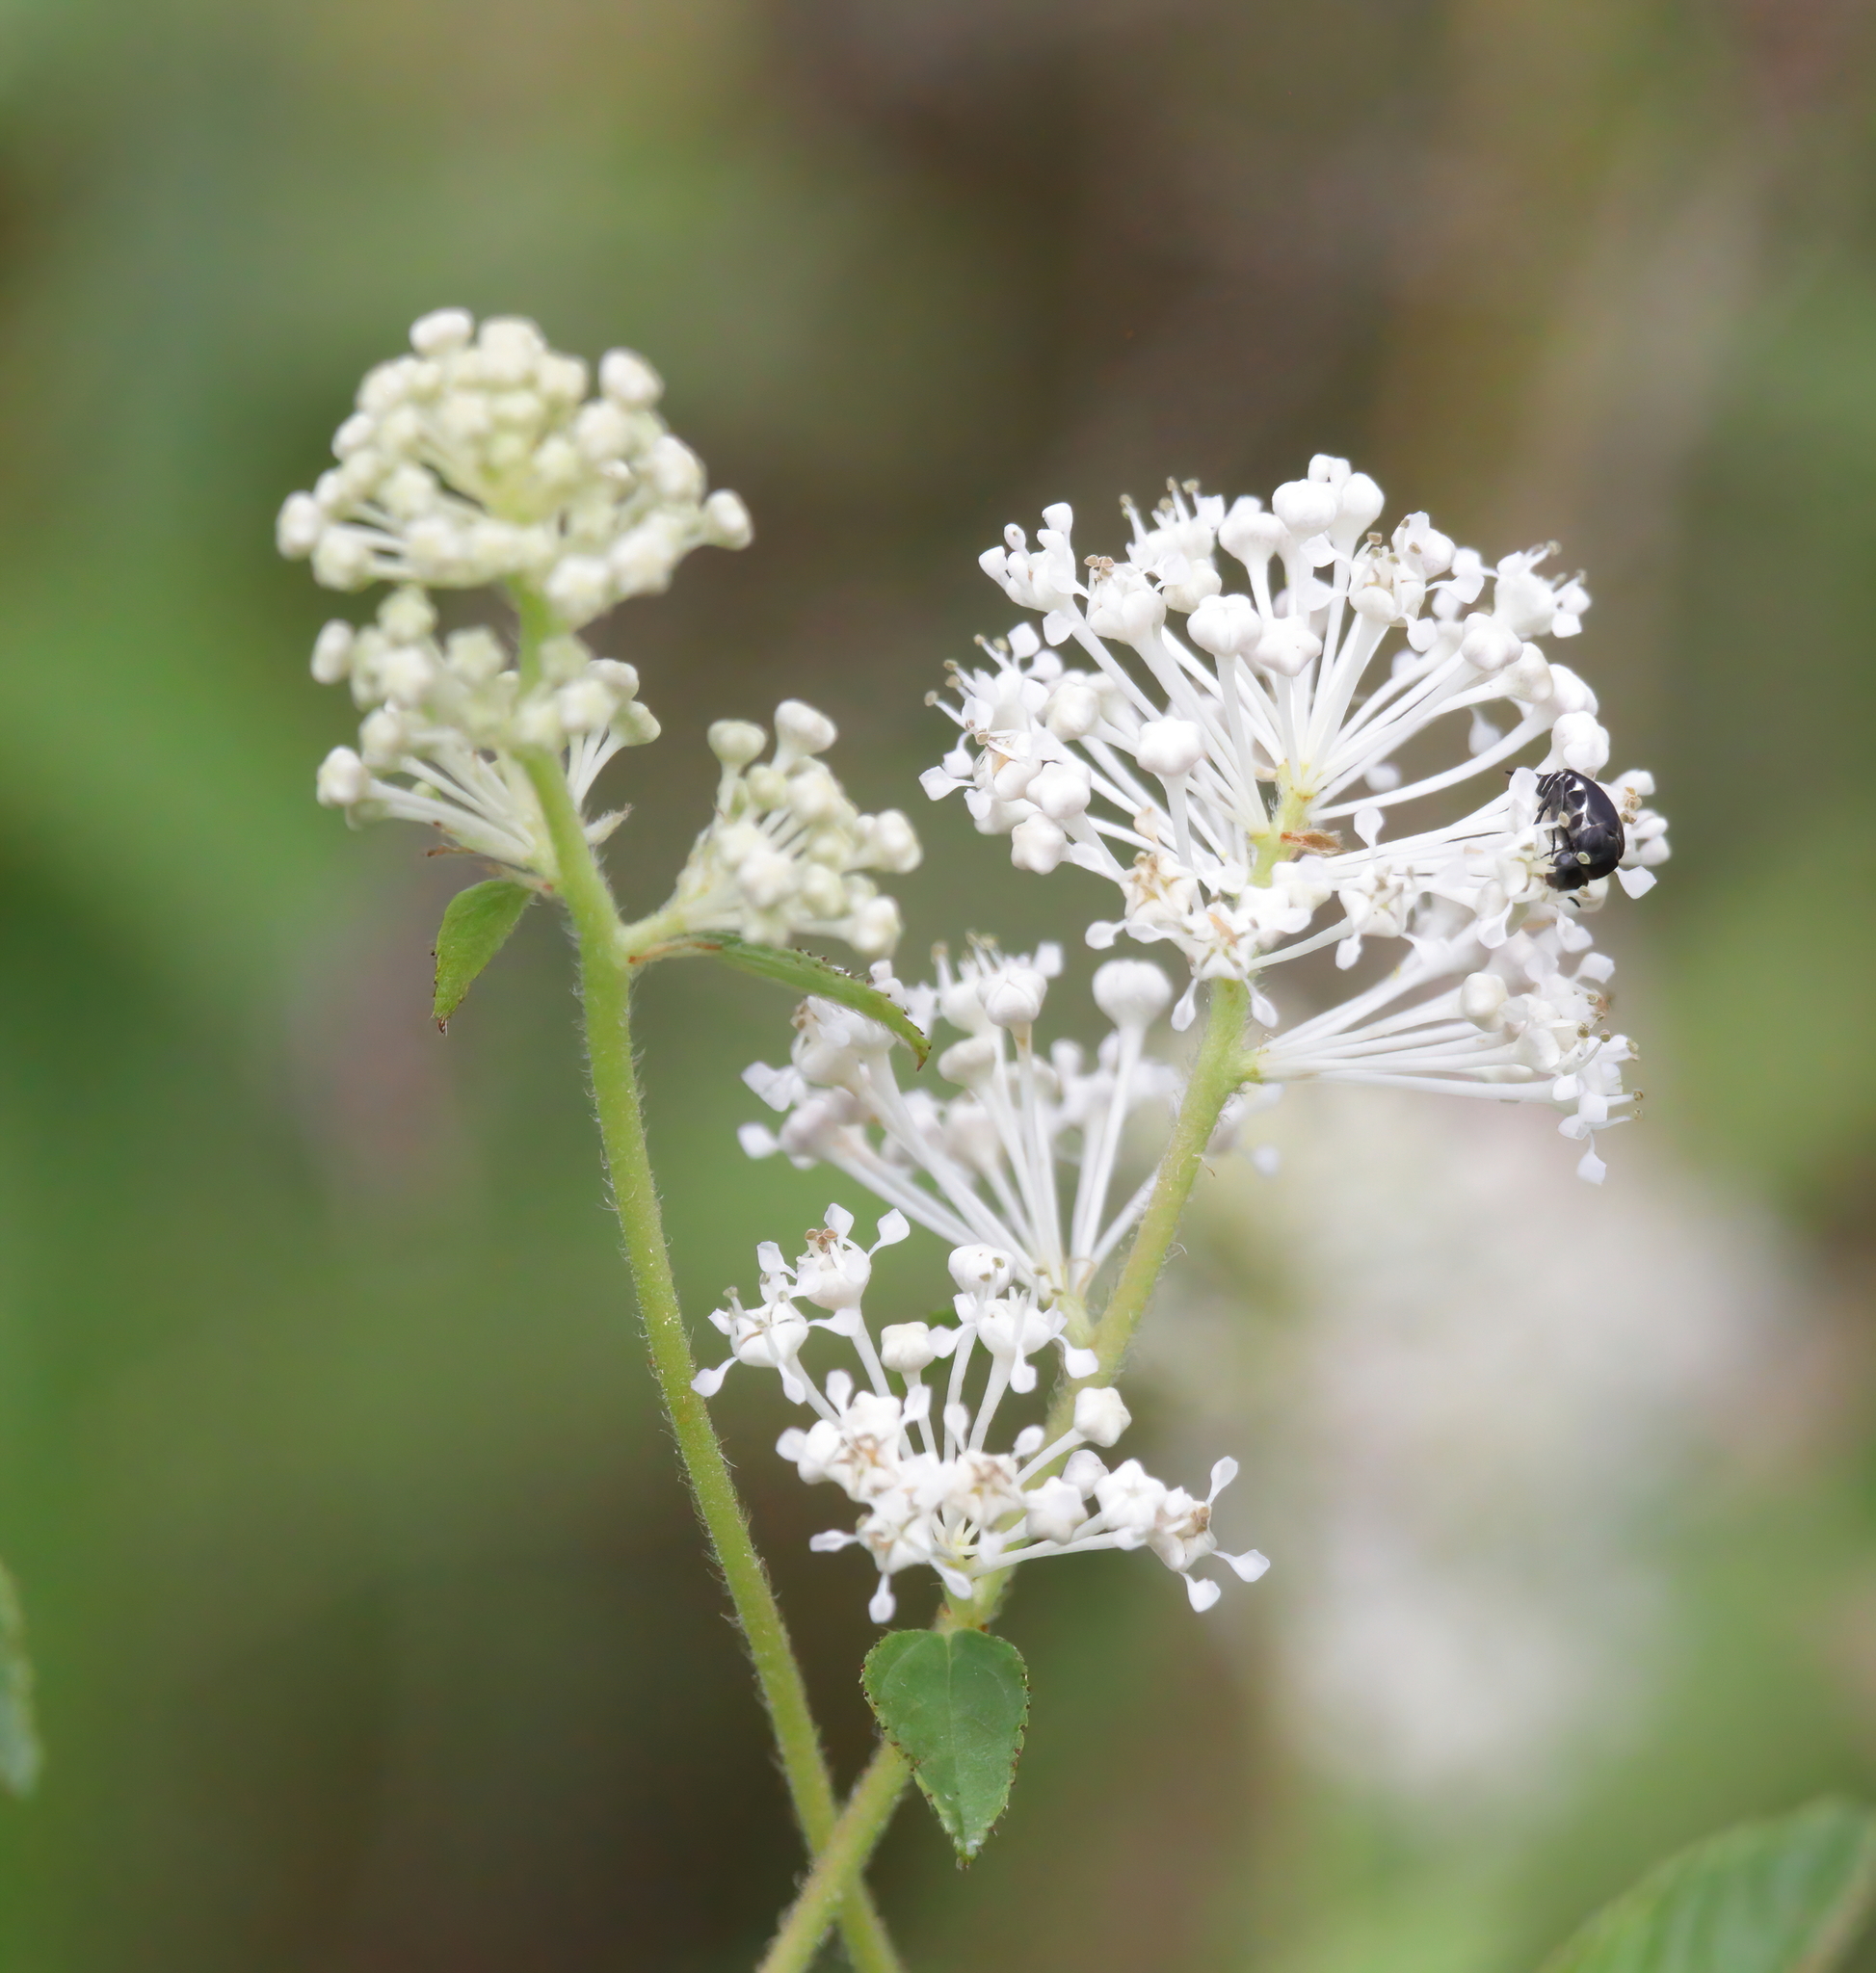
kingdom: Plantae
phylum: Tracheophyta
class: Magnoliopsida
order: Rosales
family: Rhamnaceae
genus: Ceanothus
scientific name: Ceanothus americanus
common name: Redroot
